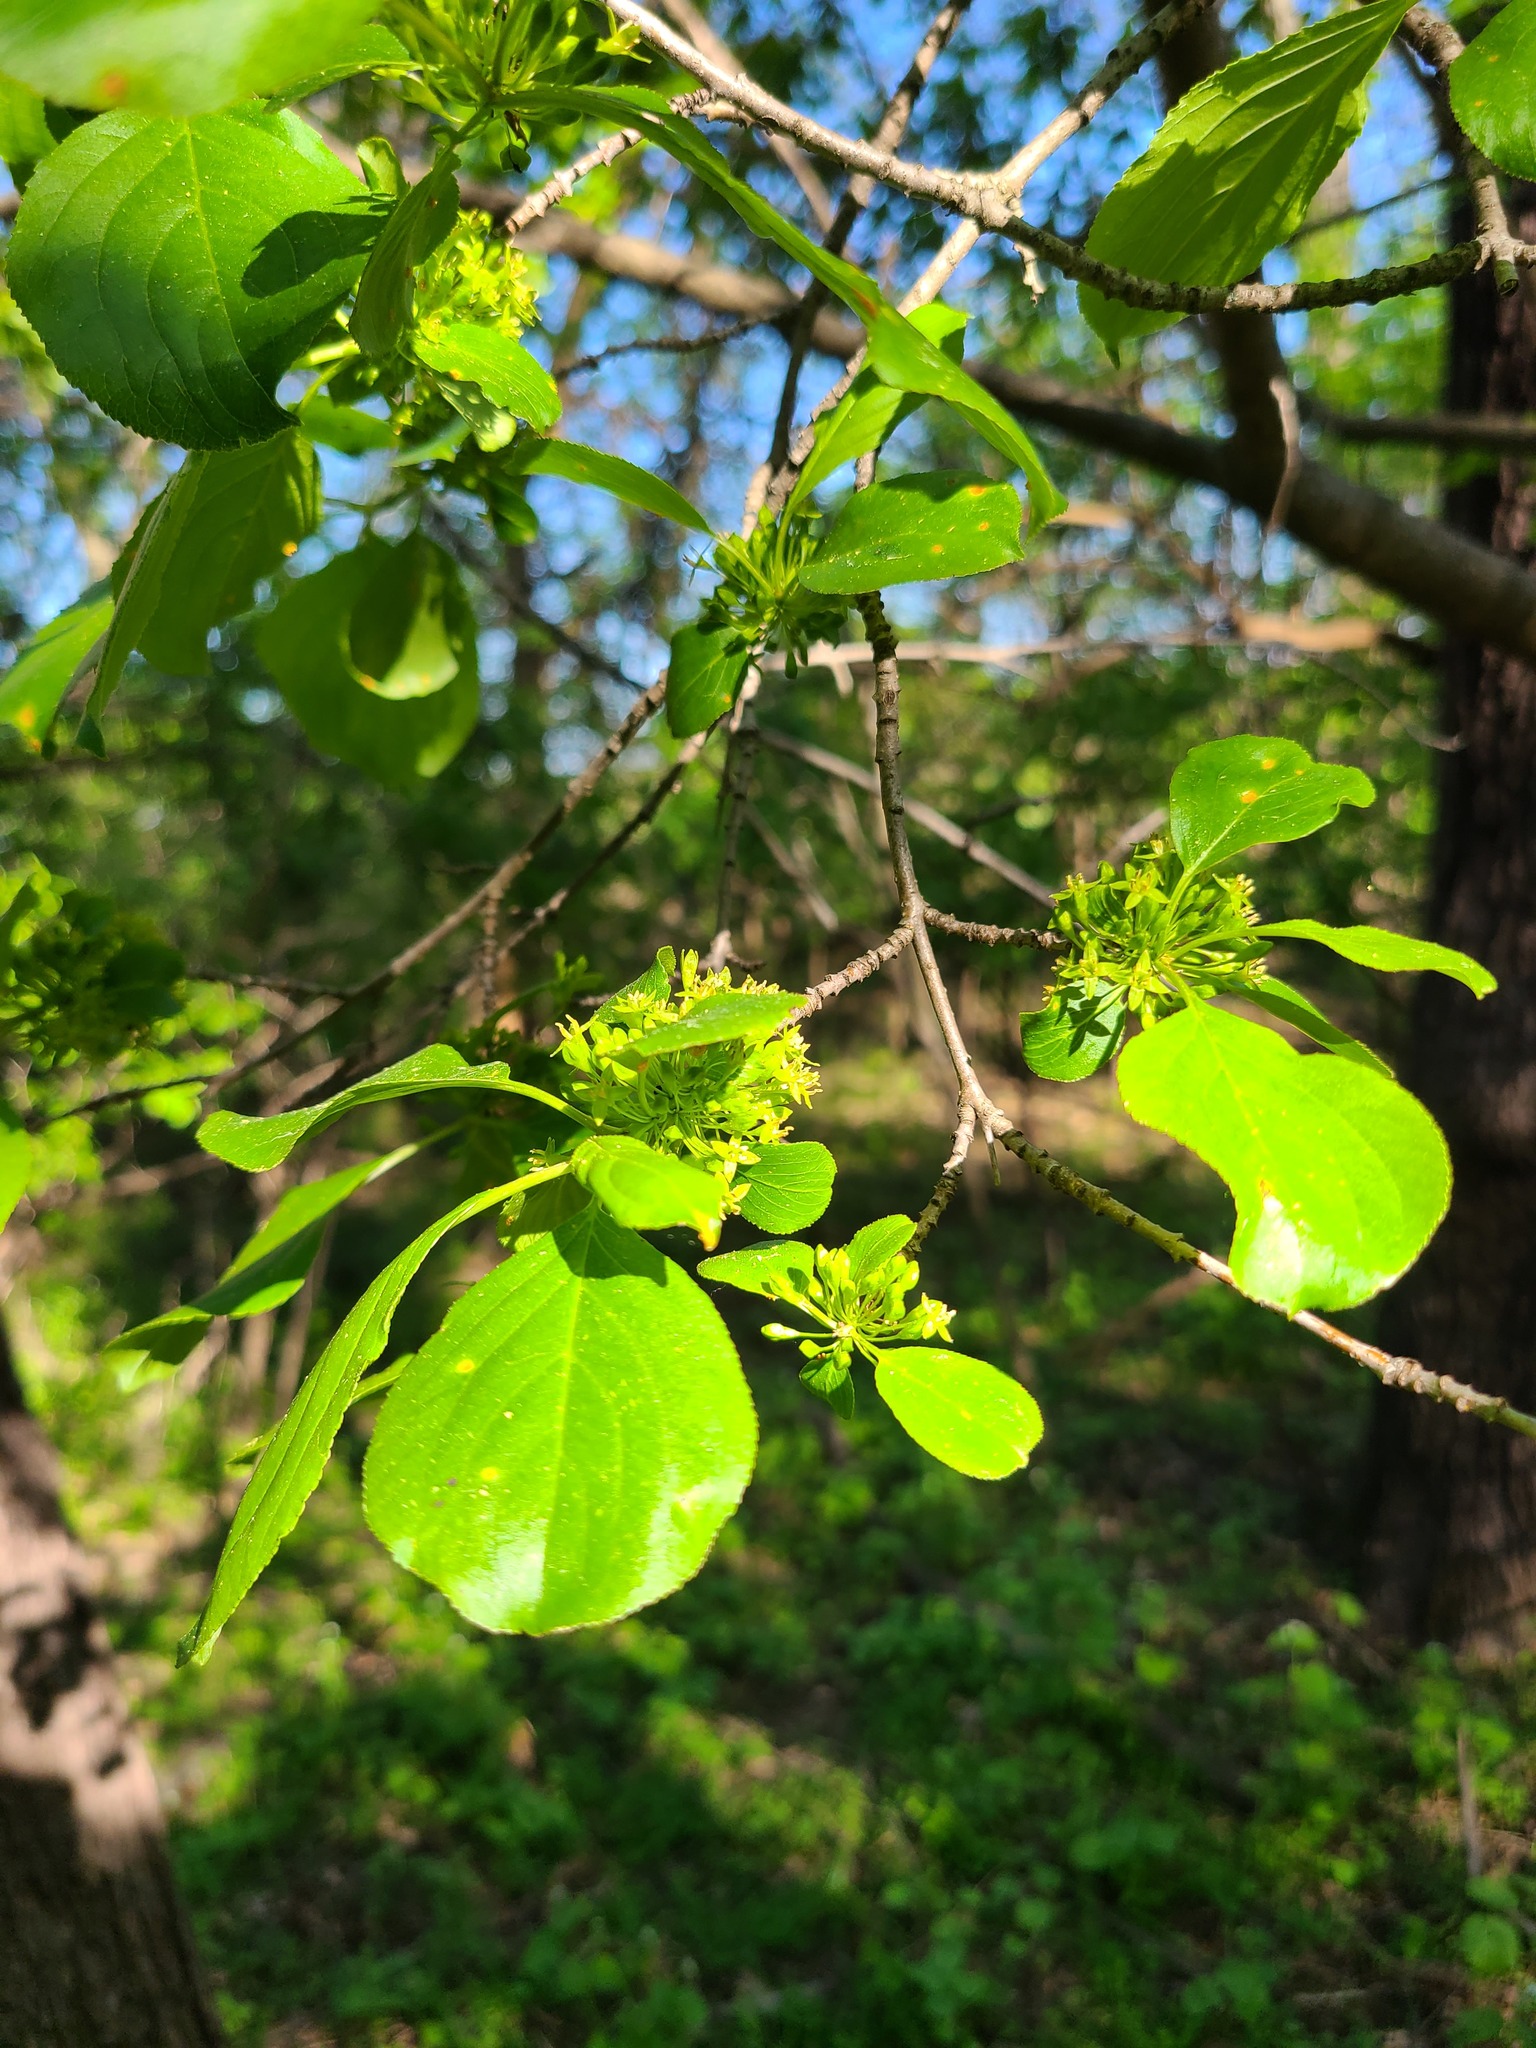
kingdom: Plantae
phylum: Tracheophyta
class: Magnoliopsida
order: Rosales
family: Rhamnaceae
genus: Rhamnus
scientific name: Rhamnus cathartica
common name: Common buckthorn
